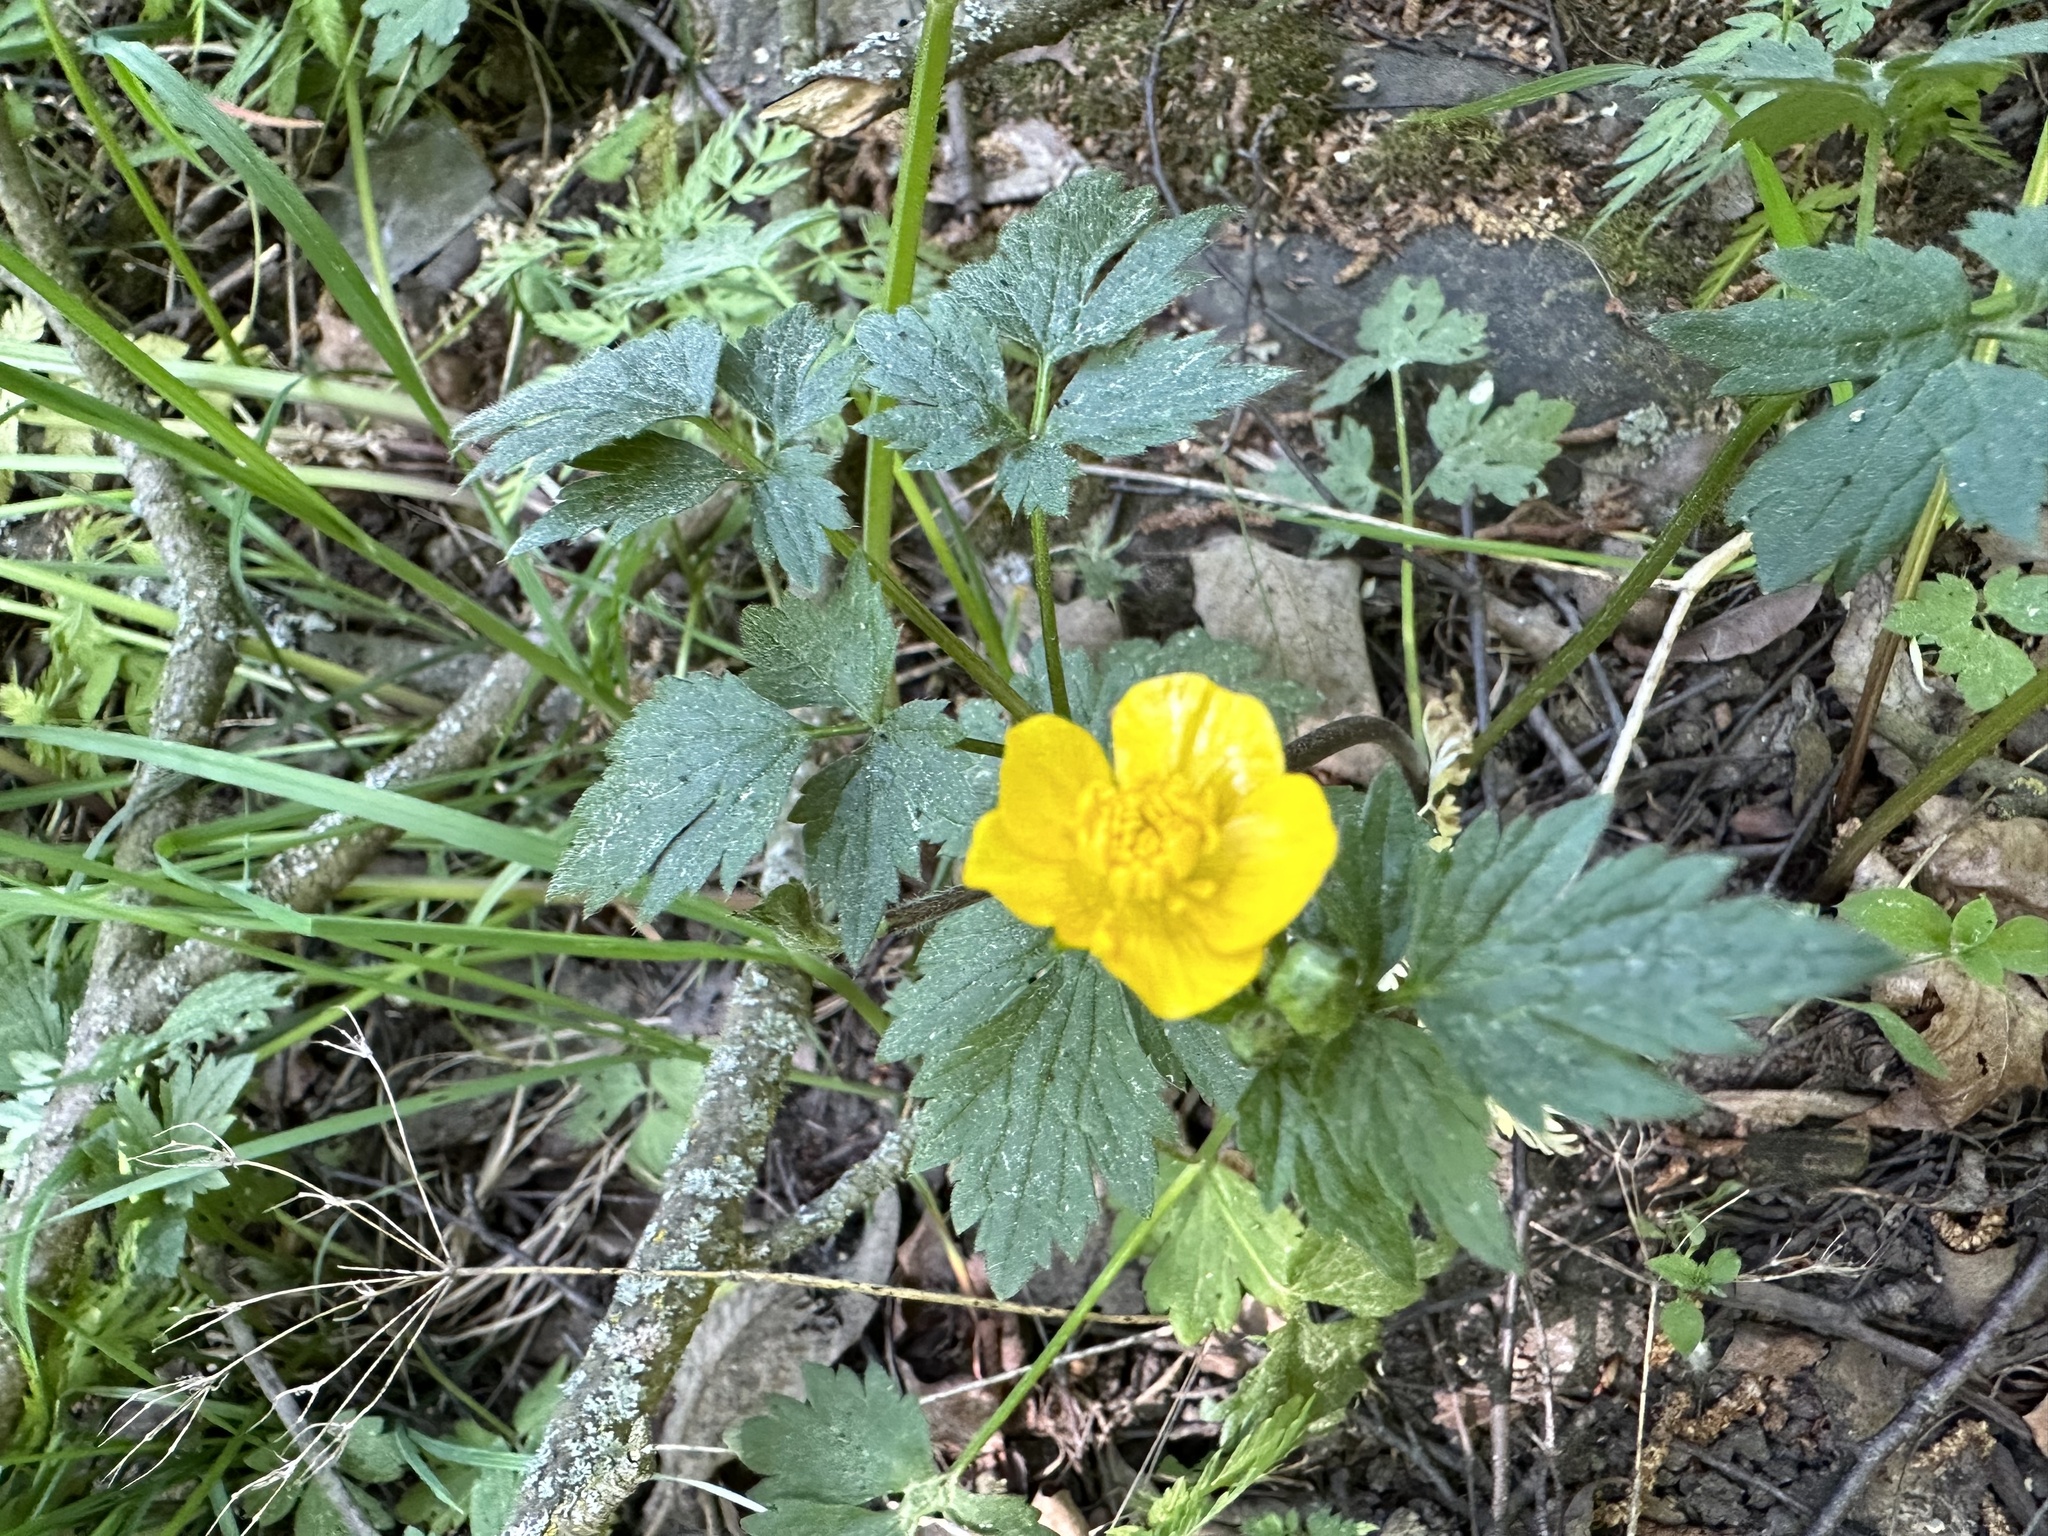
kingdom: Plantae
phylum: Tracheophyta
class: Magnoliopsida
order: Ranunculales
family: Ranunculaceae
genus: Ranunculus
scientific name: Ranunculus repens
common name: Creeping buttercup
